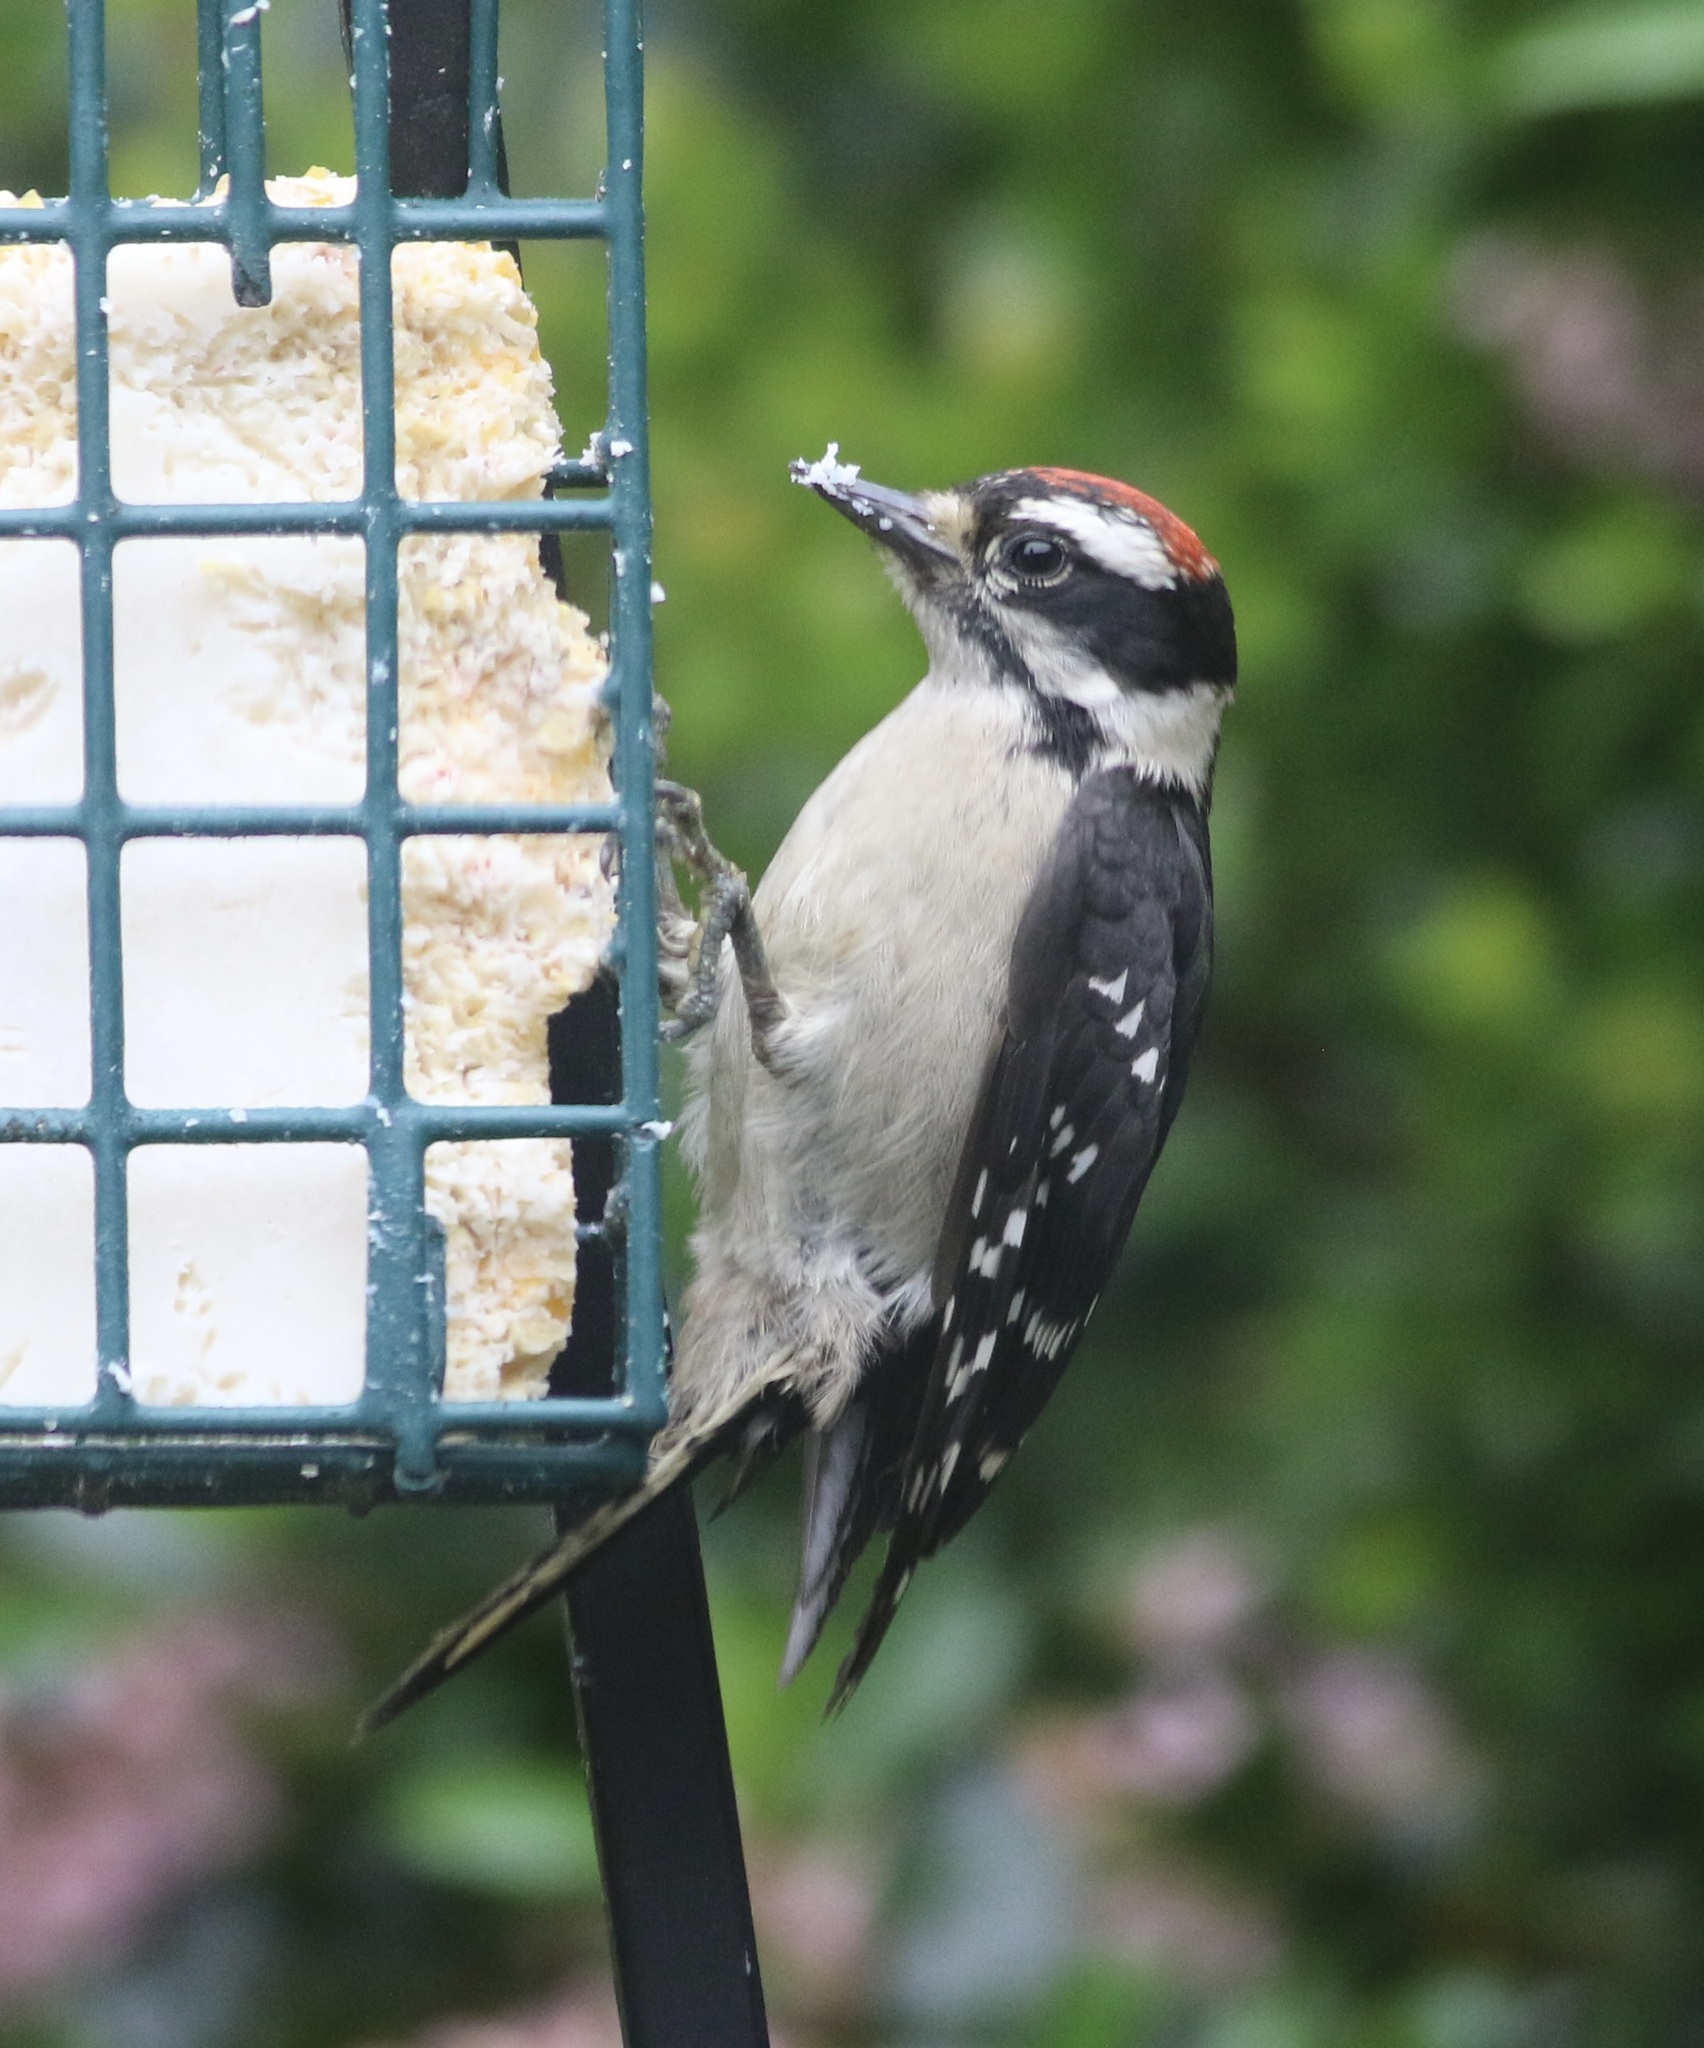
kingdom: Animalia
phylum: Chordata
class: Aves
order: Piciformes
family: Picidae
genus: Dryobates
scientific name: Dryobates pubescens
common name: Downy woodpecker
